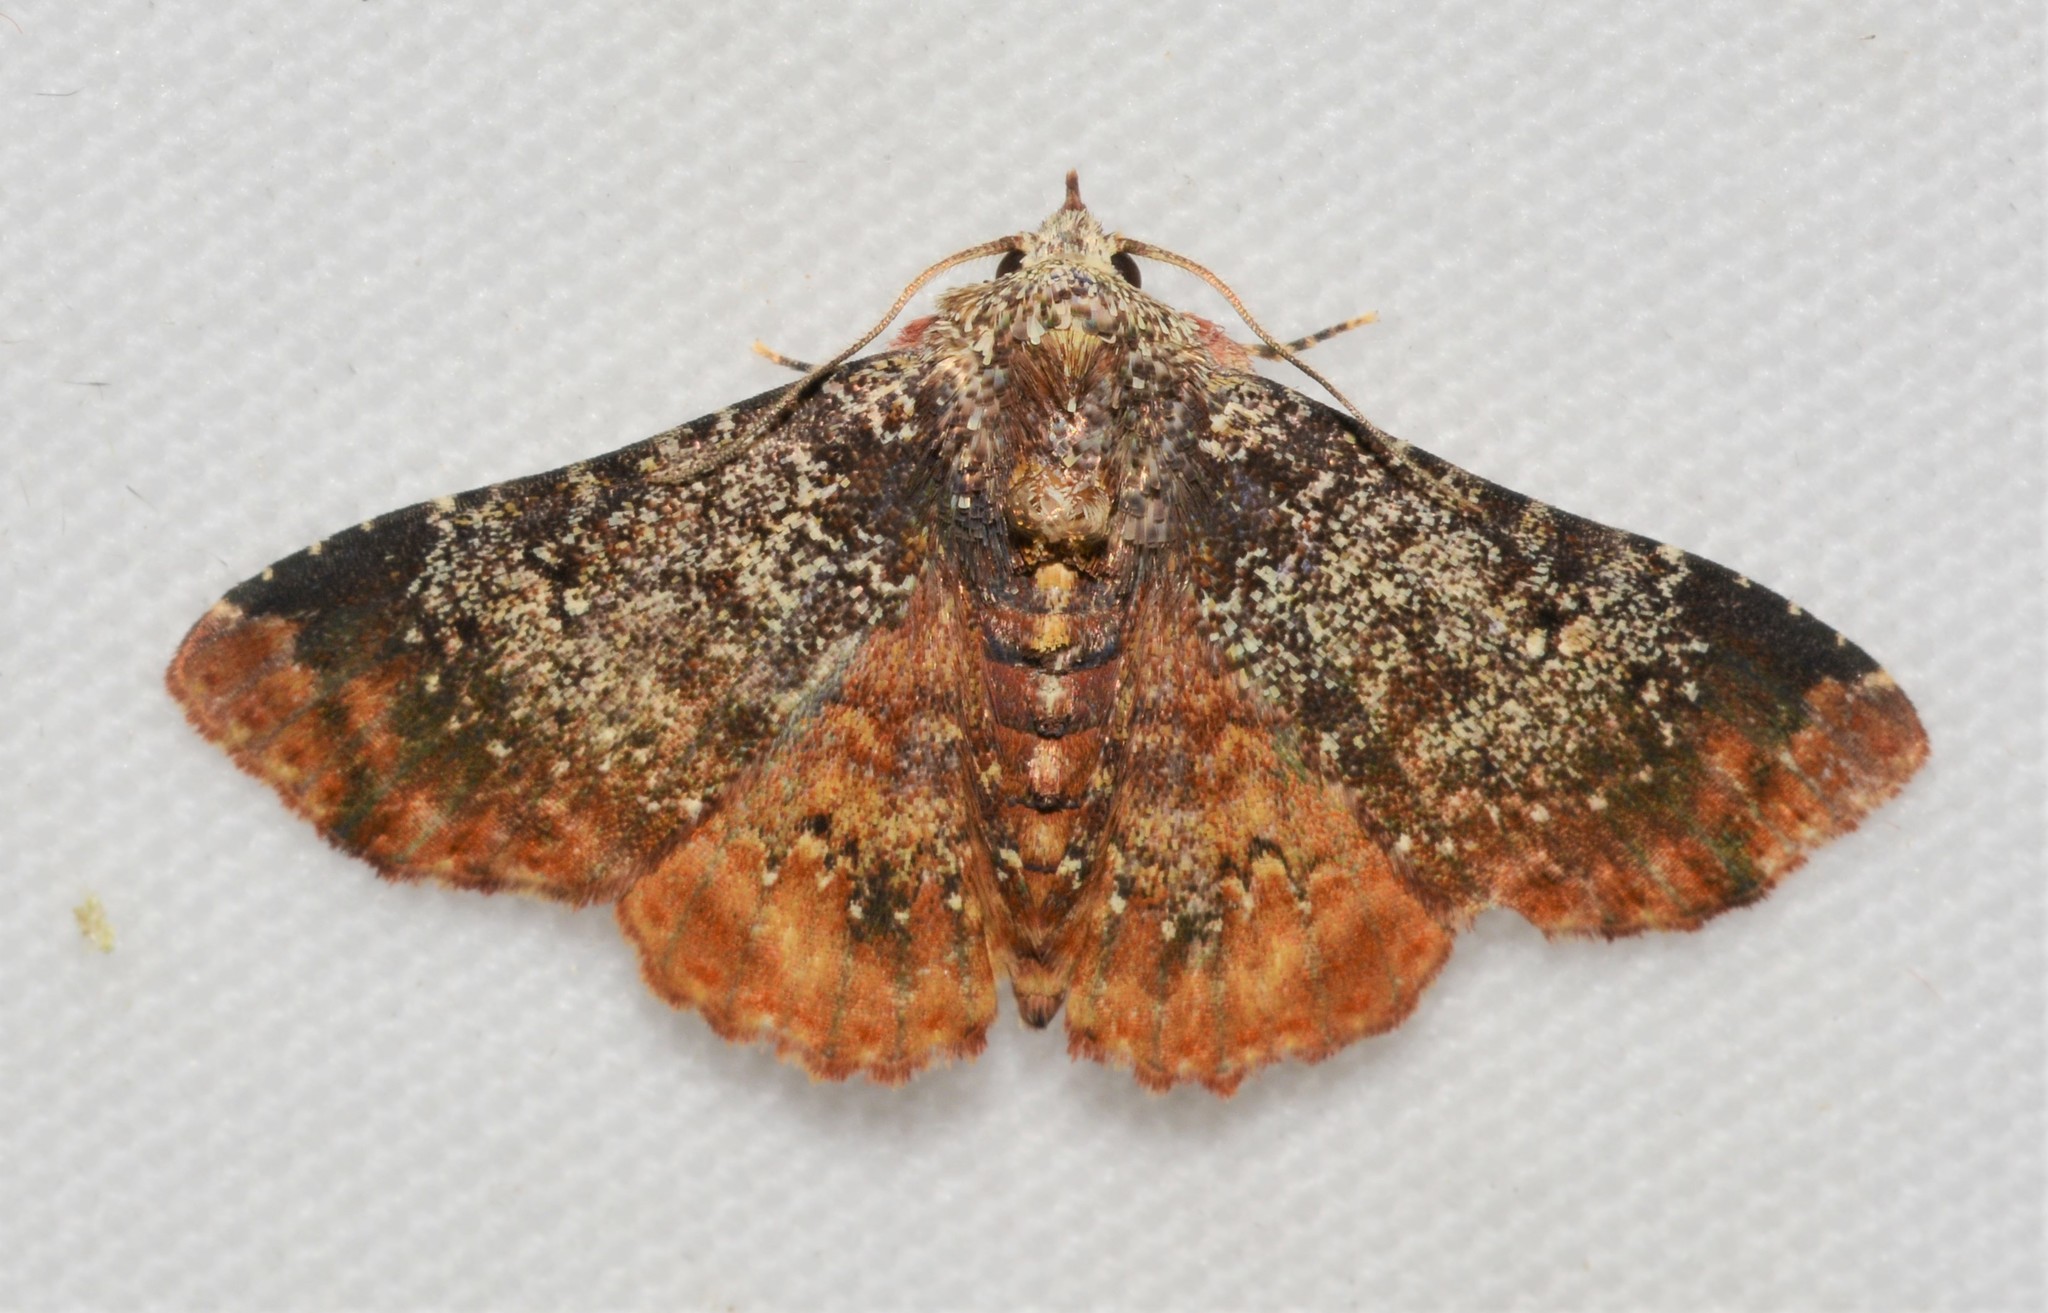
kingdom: Animalia
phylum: Arthropoda
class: Insecta
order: Lepidoptera
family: Erebidae
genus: Selenisa
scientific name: Selenisa specifica
